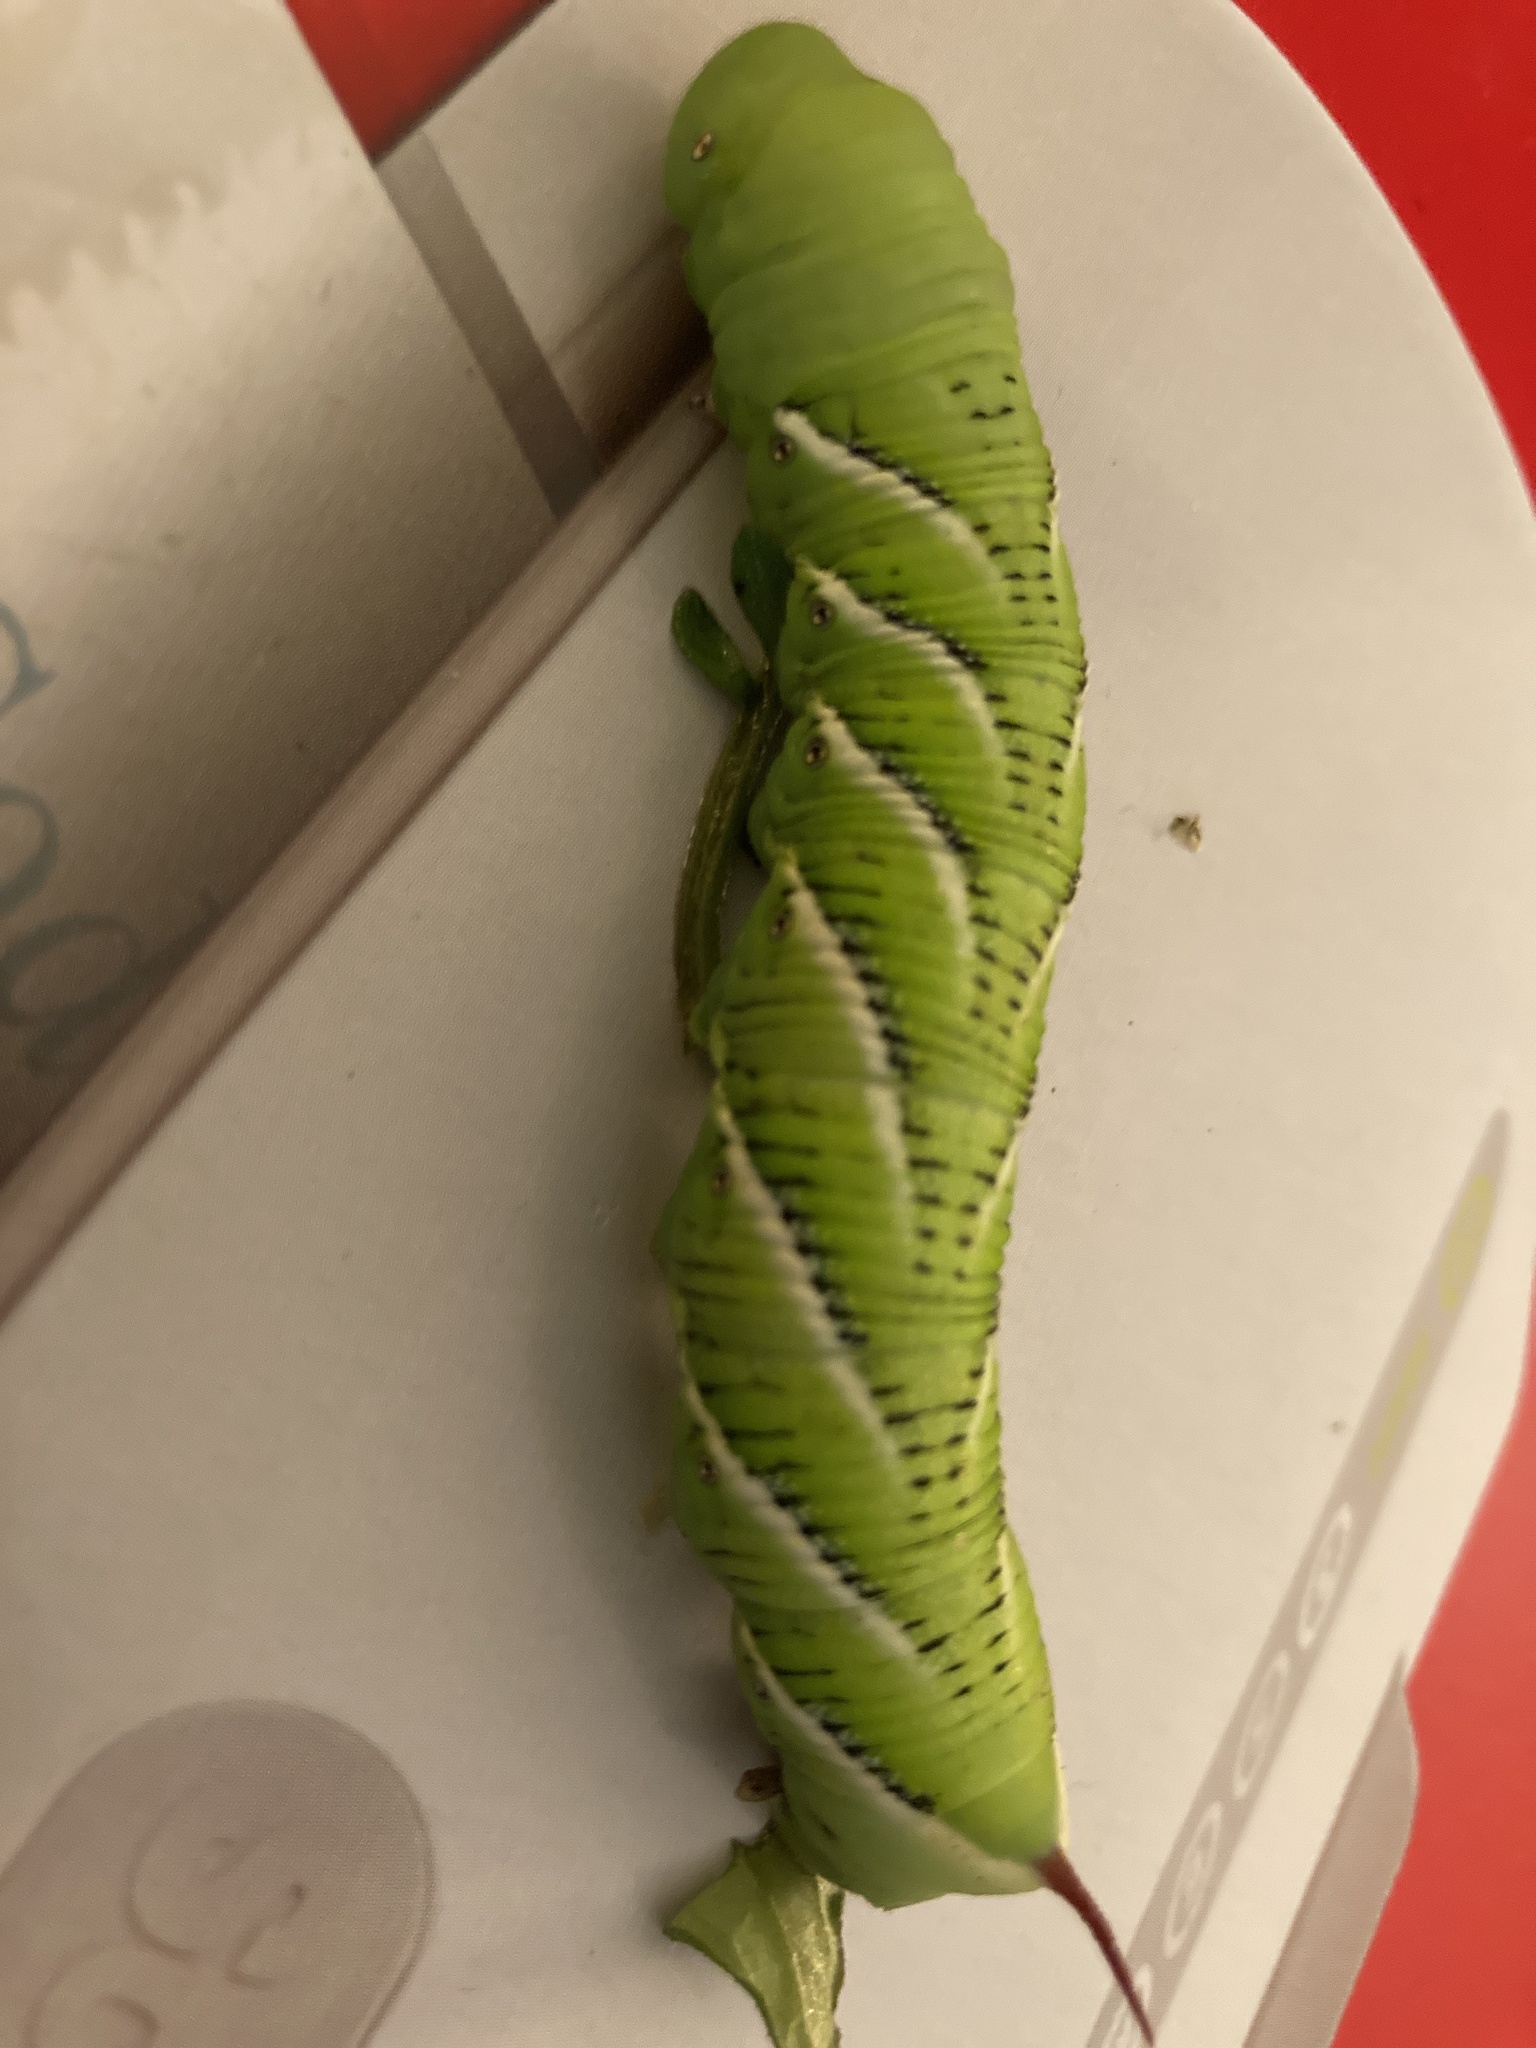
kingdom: Animalia
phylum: Arthropoda
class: Insecta
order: Lepidoptera
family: Sphingidae
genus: Manduca
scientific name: Manduca sexta
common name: Carolina sphinx
